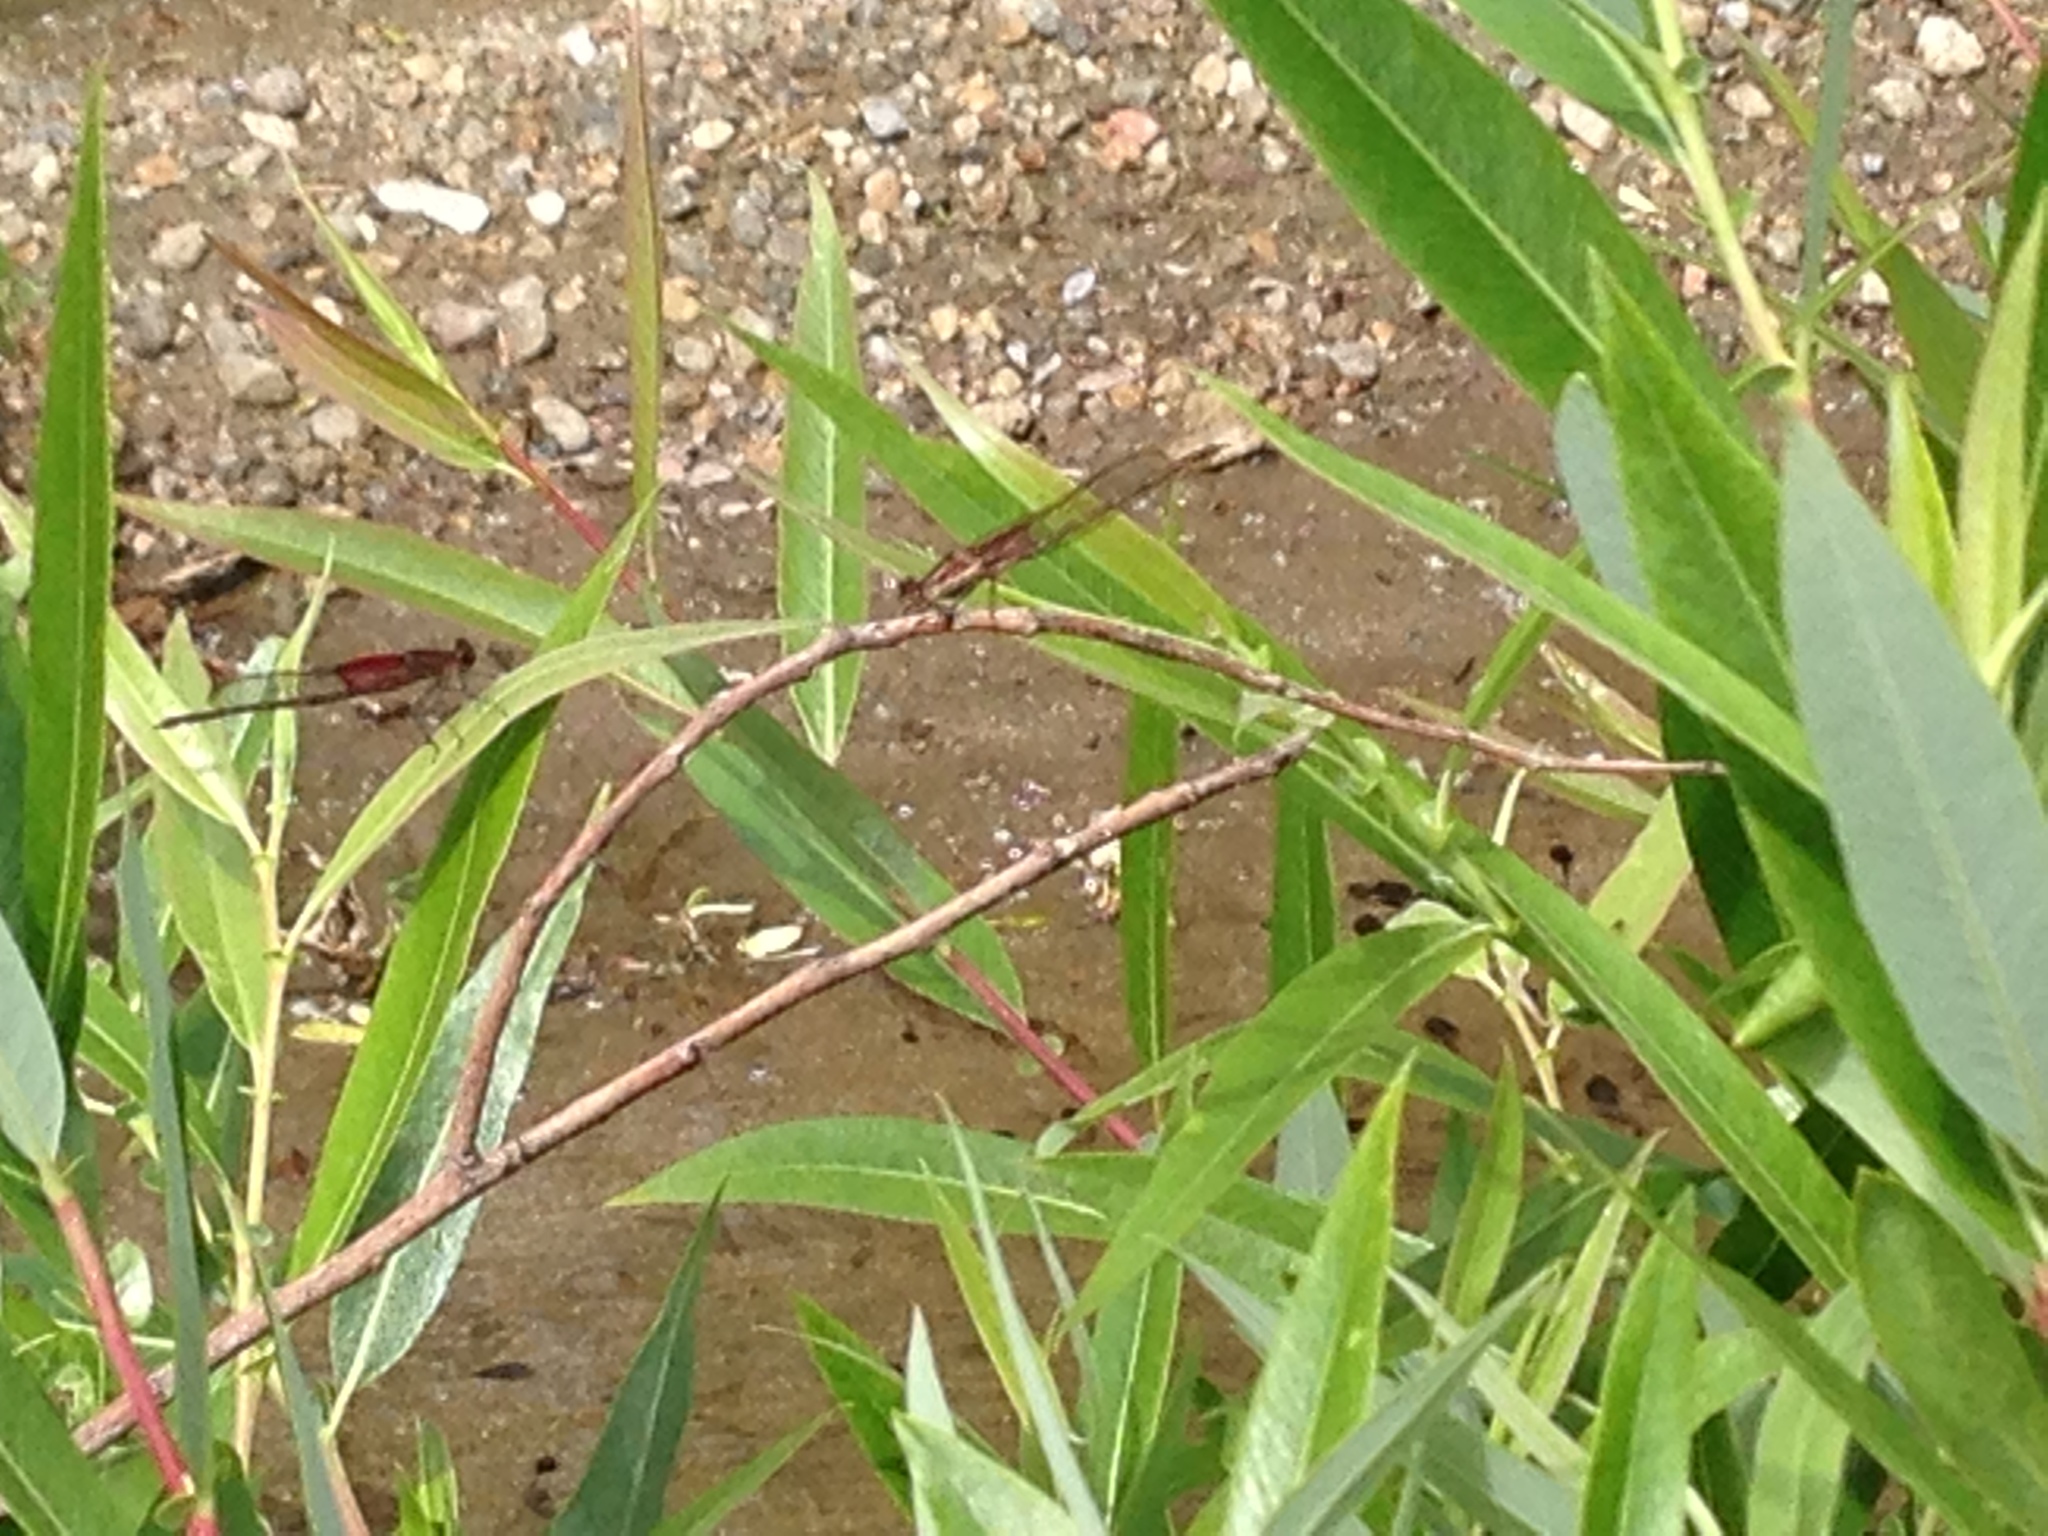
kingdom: Animalia
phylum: Arthropoda
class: Insecta
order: Odonata
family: Calopterygidae
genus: Hetaerina
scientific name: Hetaerina americana
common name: American rubyspot
